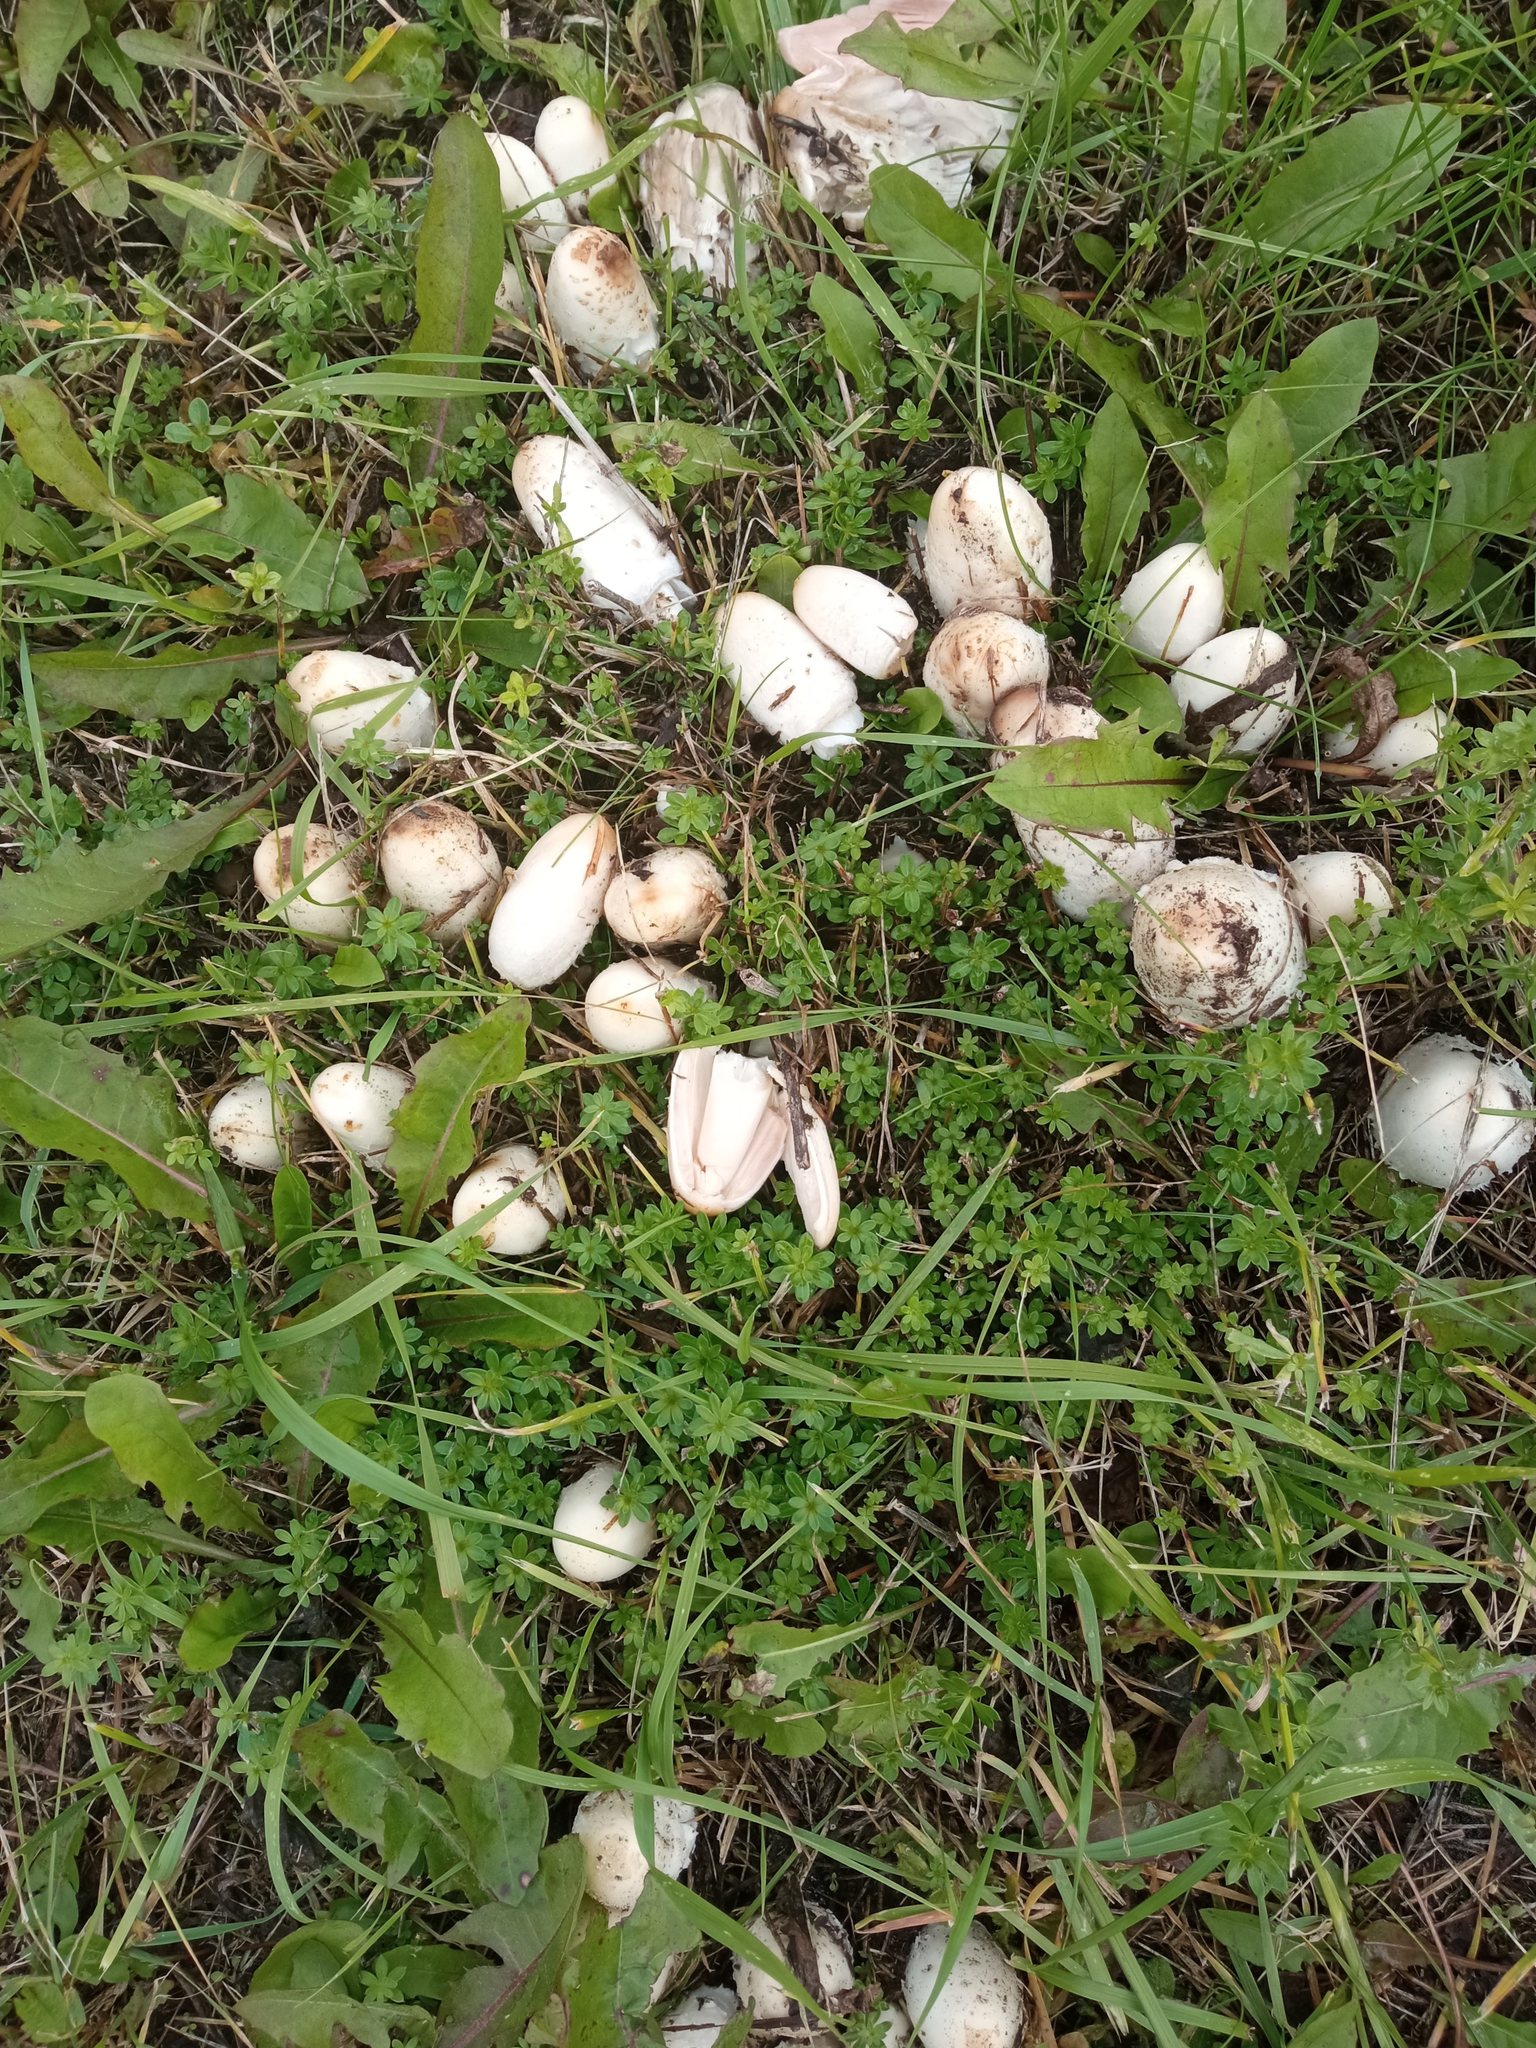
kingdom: Fungi
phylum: Basidiomycota
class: Agaricomycetes
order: Agaricales
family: Agaricaceae
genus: Coprinus
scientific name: Coprinus comatus
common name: Lawyer's wig
